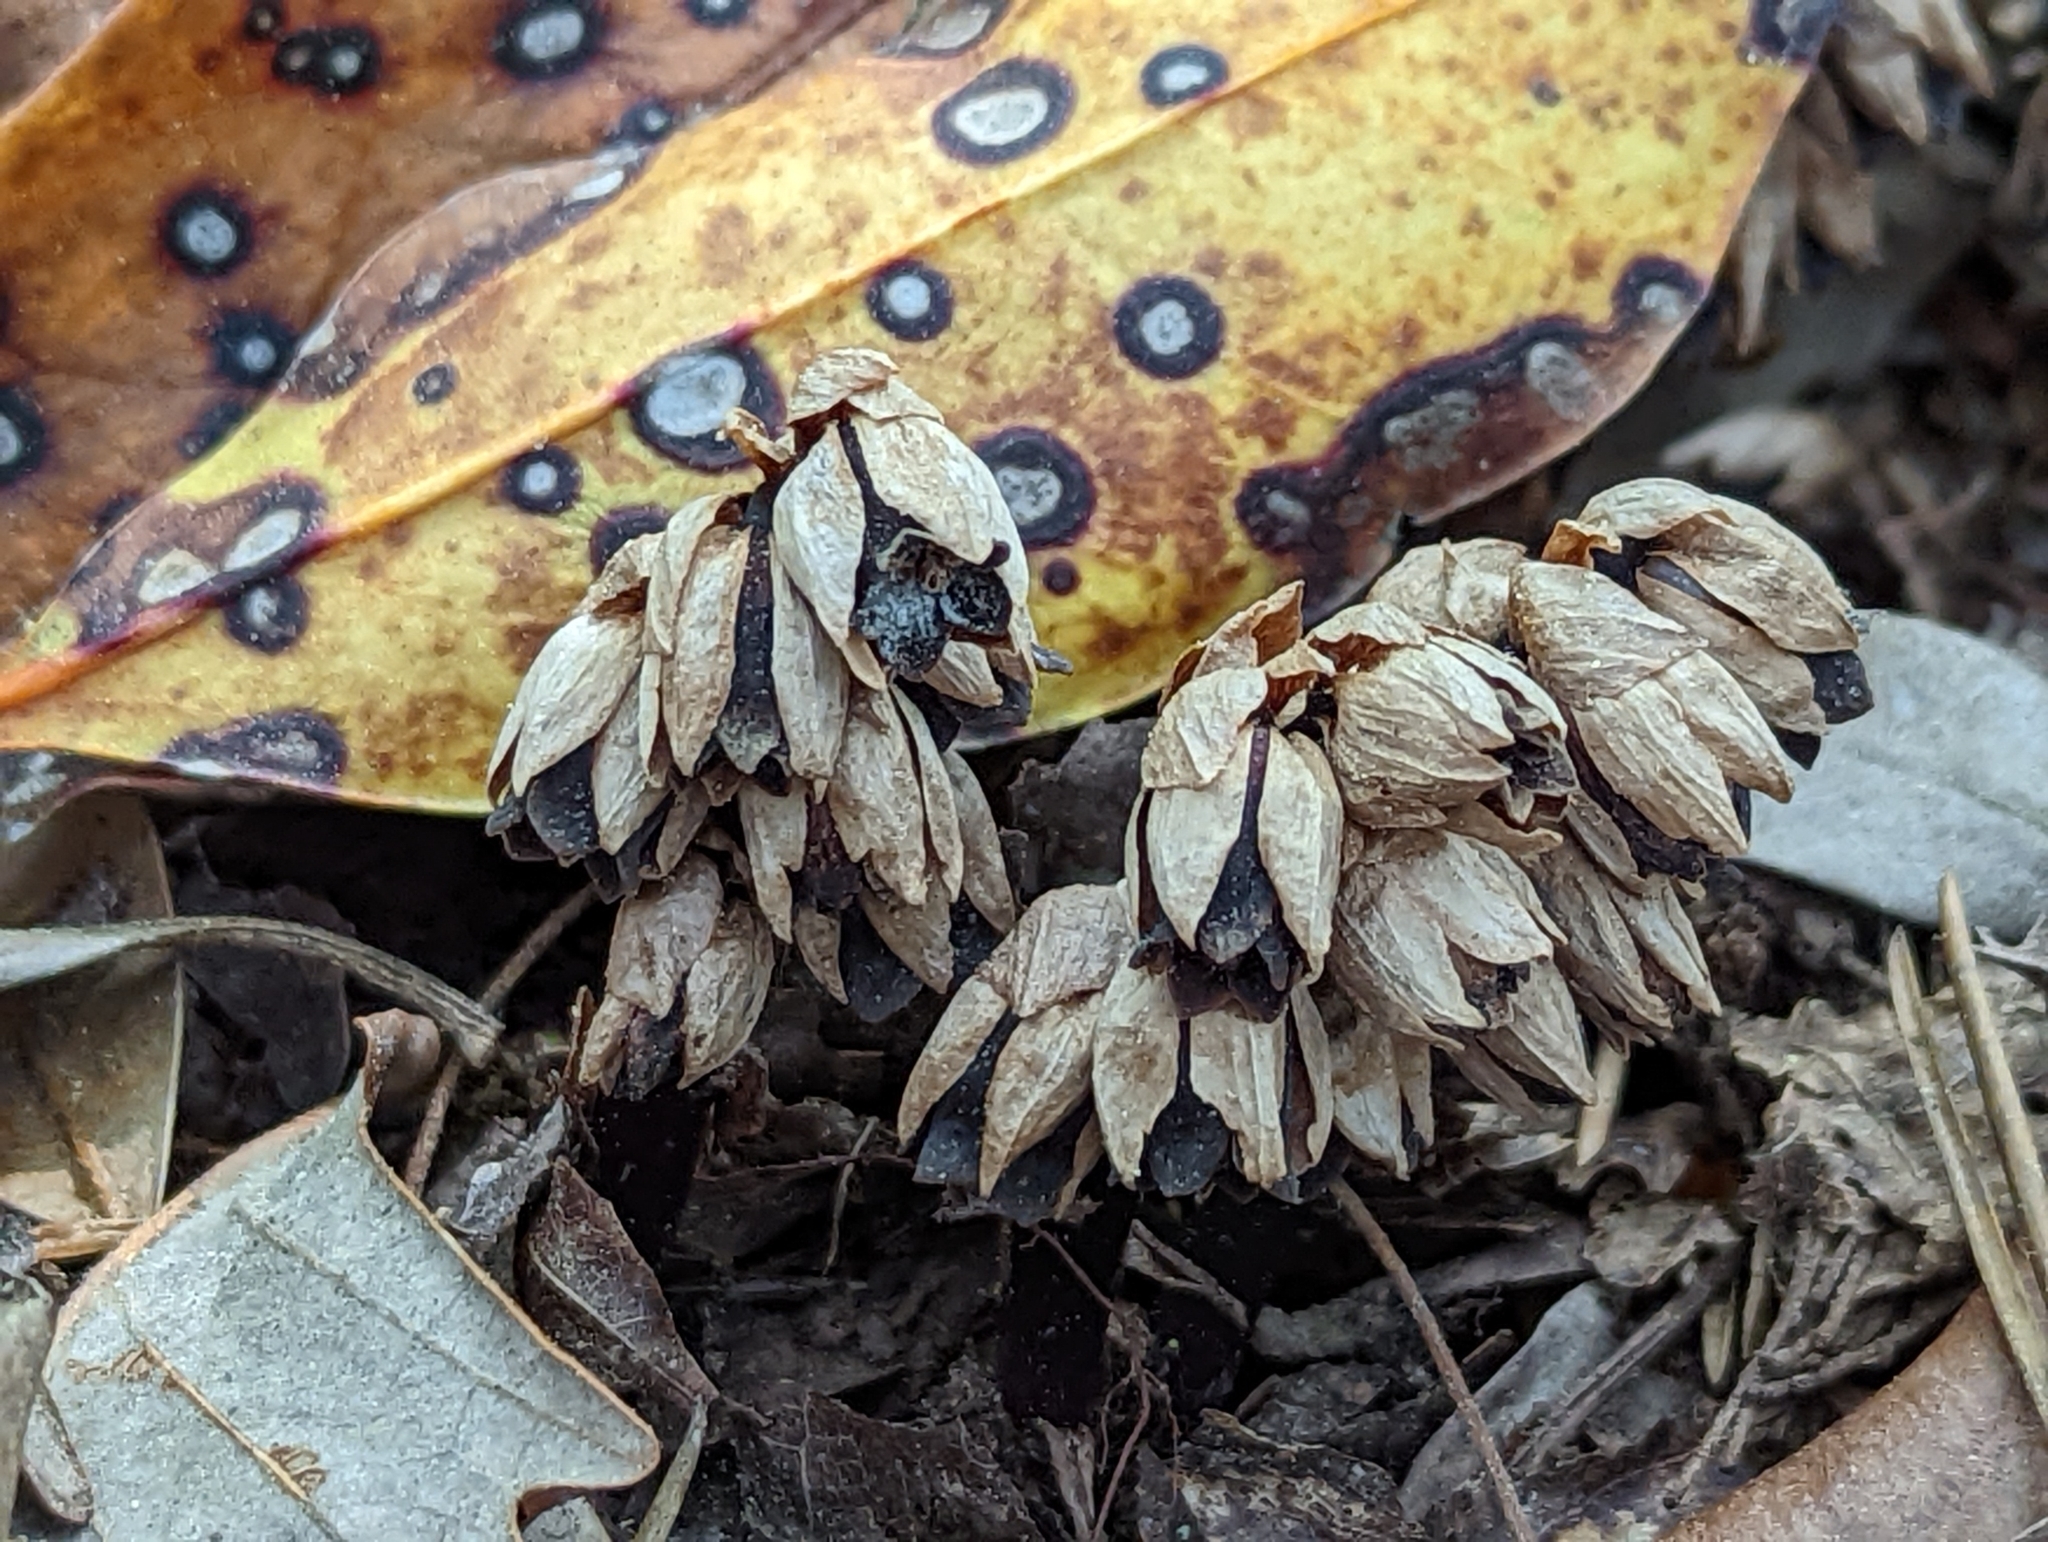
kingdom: Plantae
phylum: Tracheophyta
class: Magnoliopsida
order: Ericales
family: Ericaceae
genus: Monotropsis
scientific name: Monotropsis odorata
